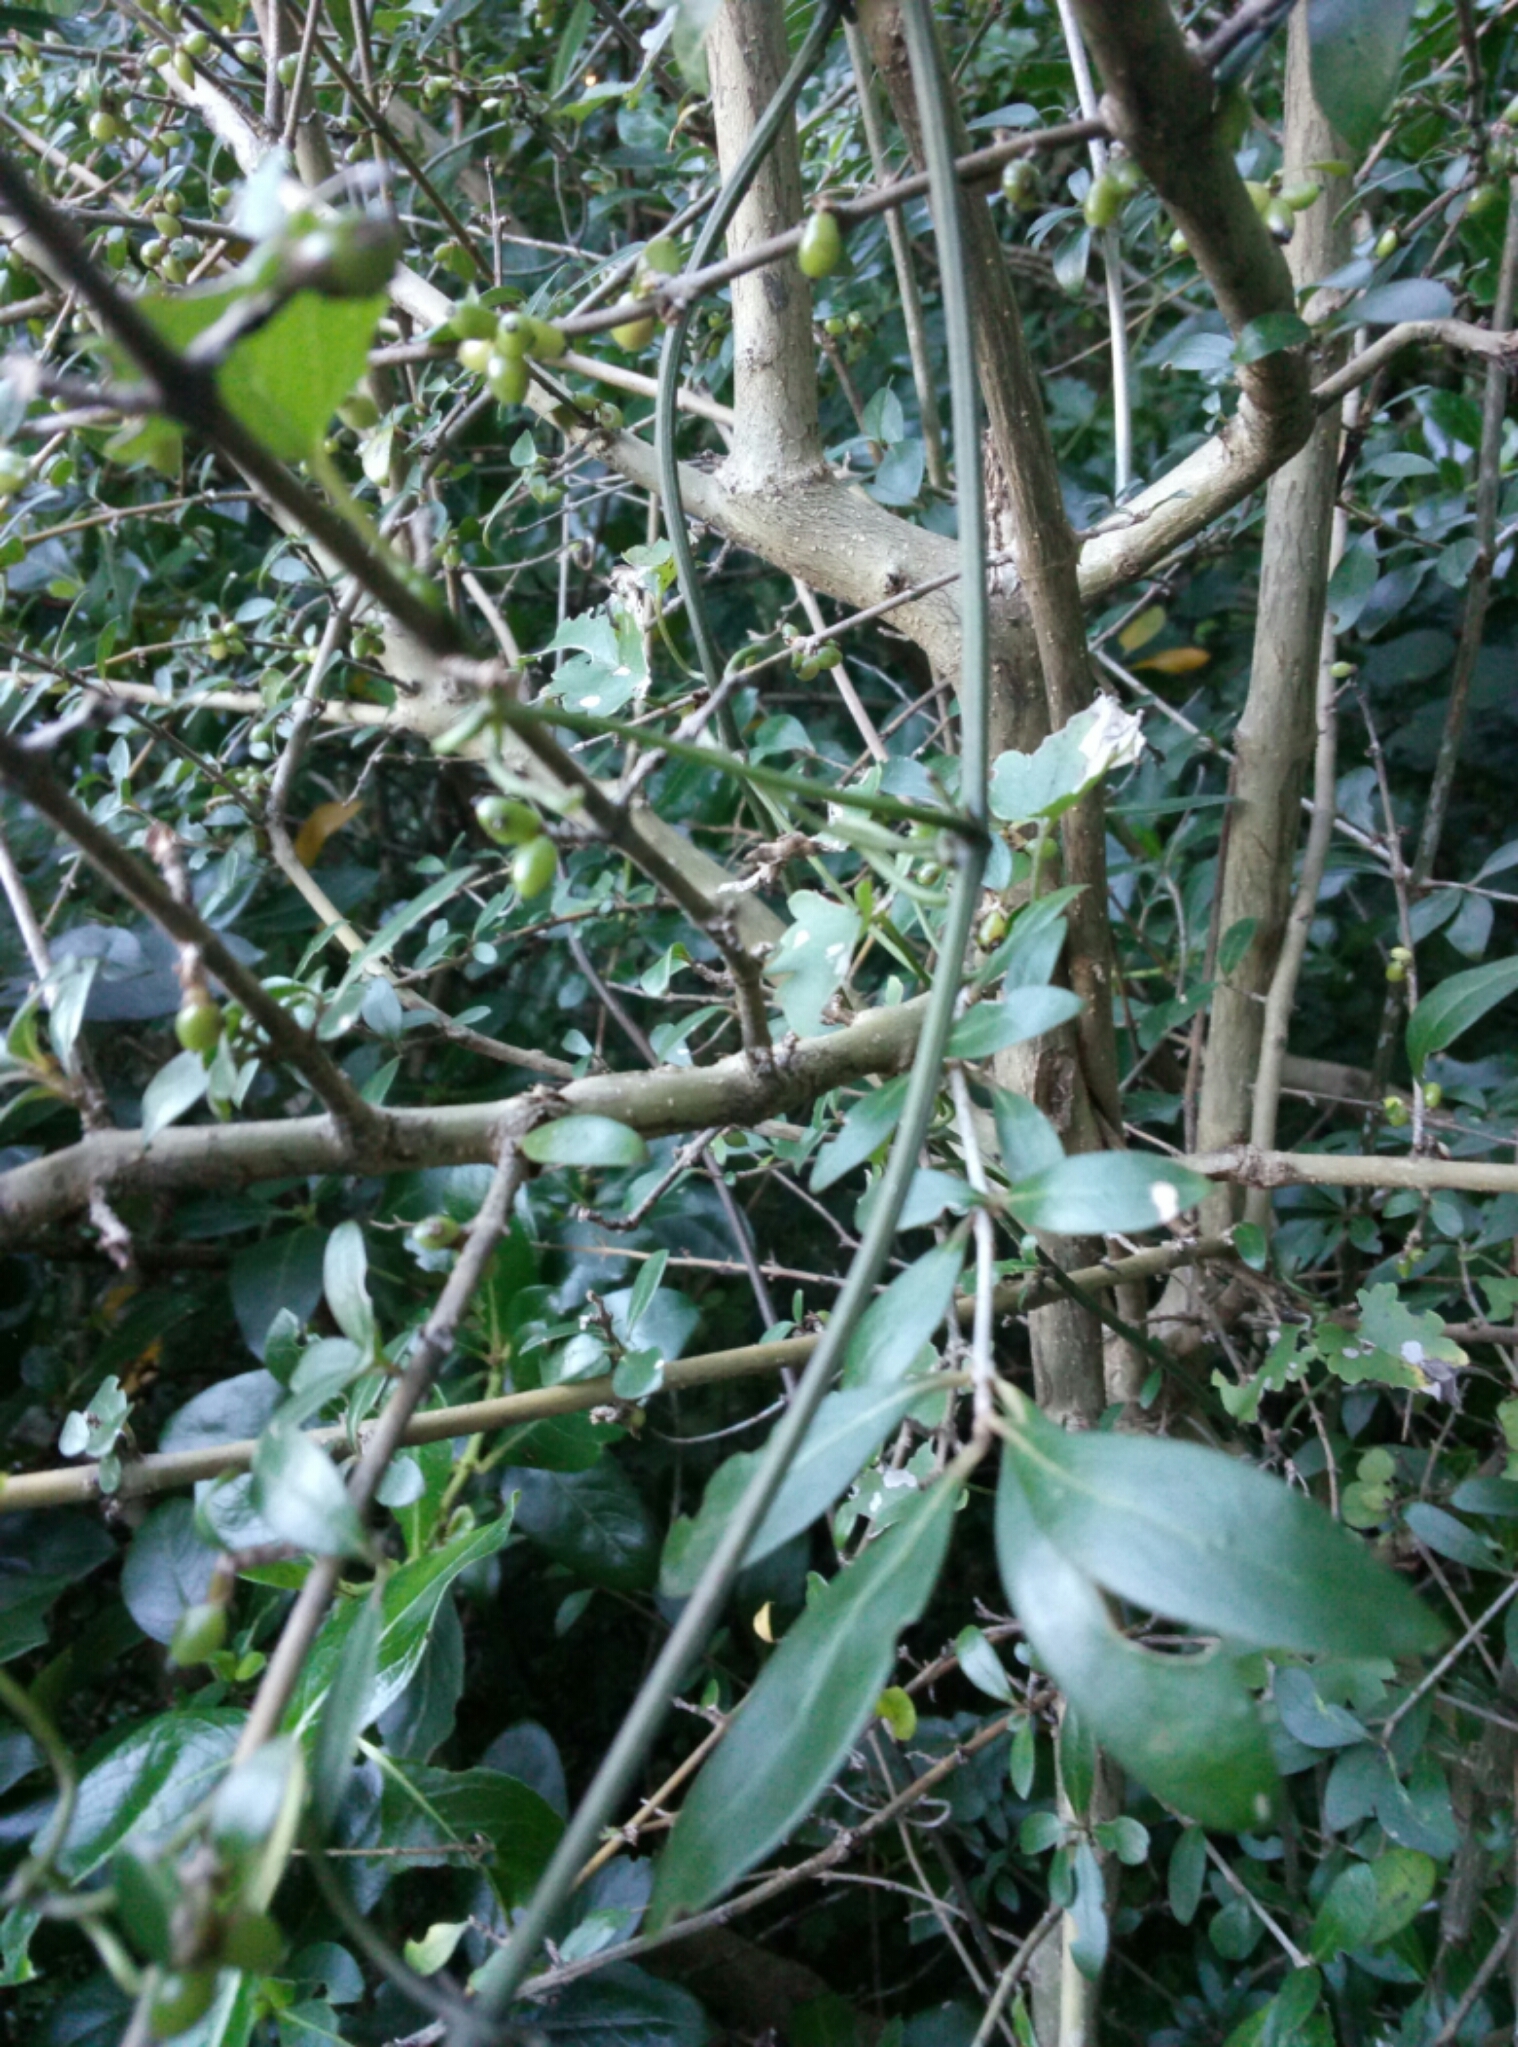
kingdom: Plantae
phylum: Tracheophyta
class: Magnoliopsida
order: Gentianales
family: Rubiaceae
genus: Coprosma
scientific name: Coprosma cunninghamii
